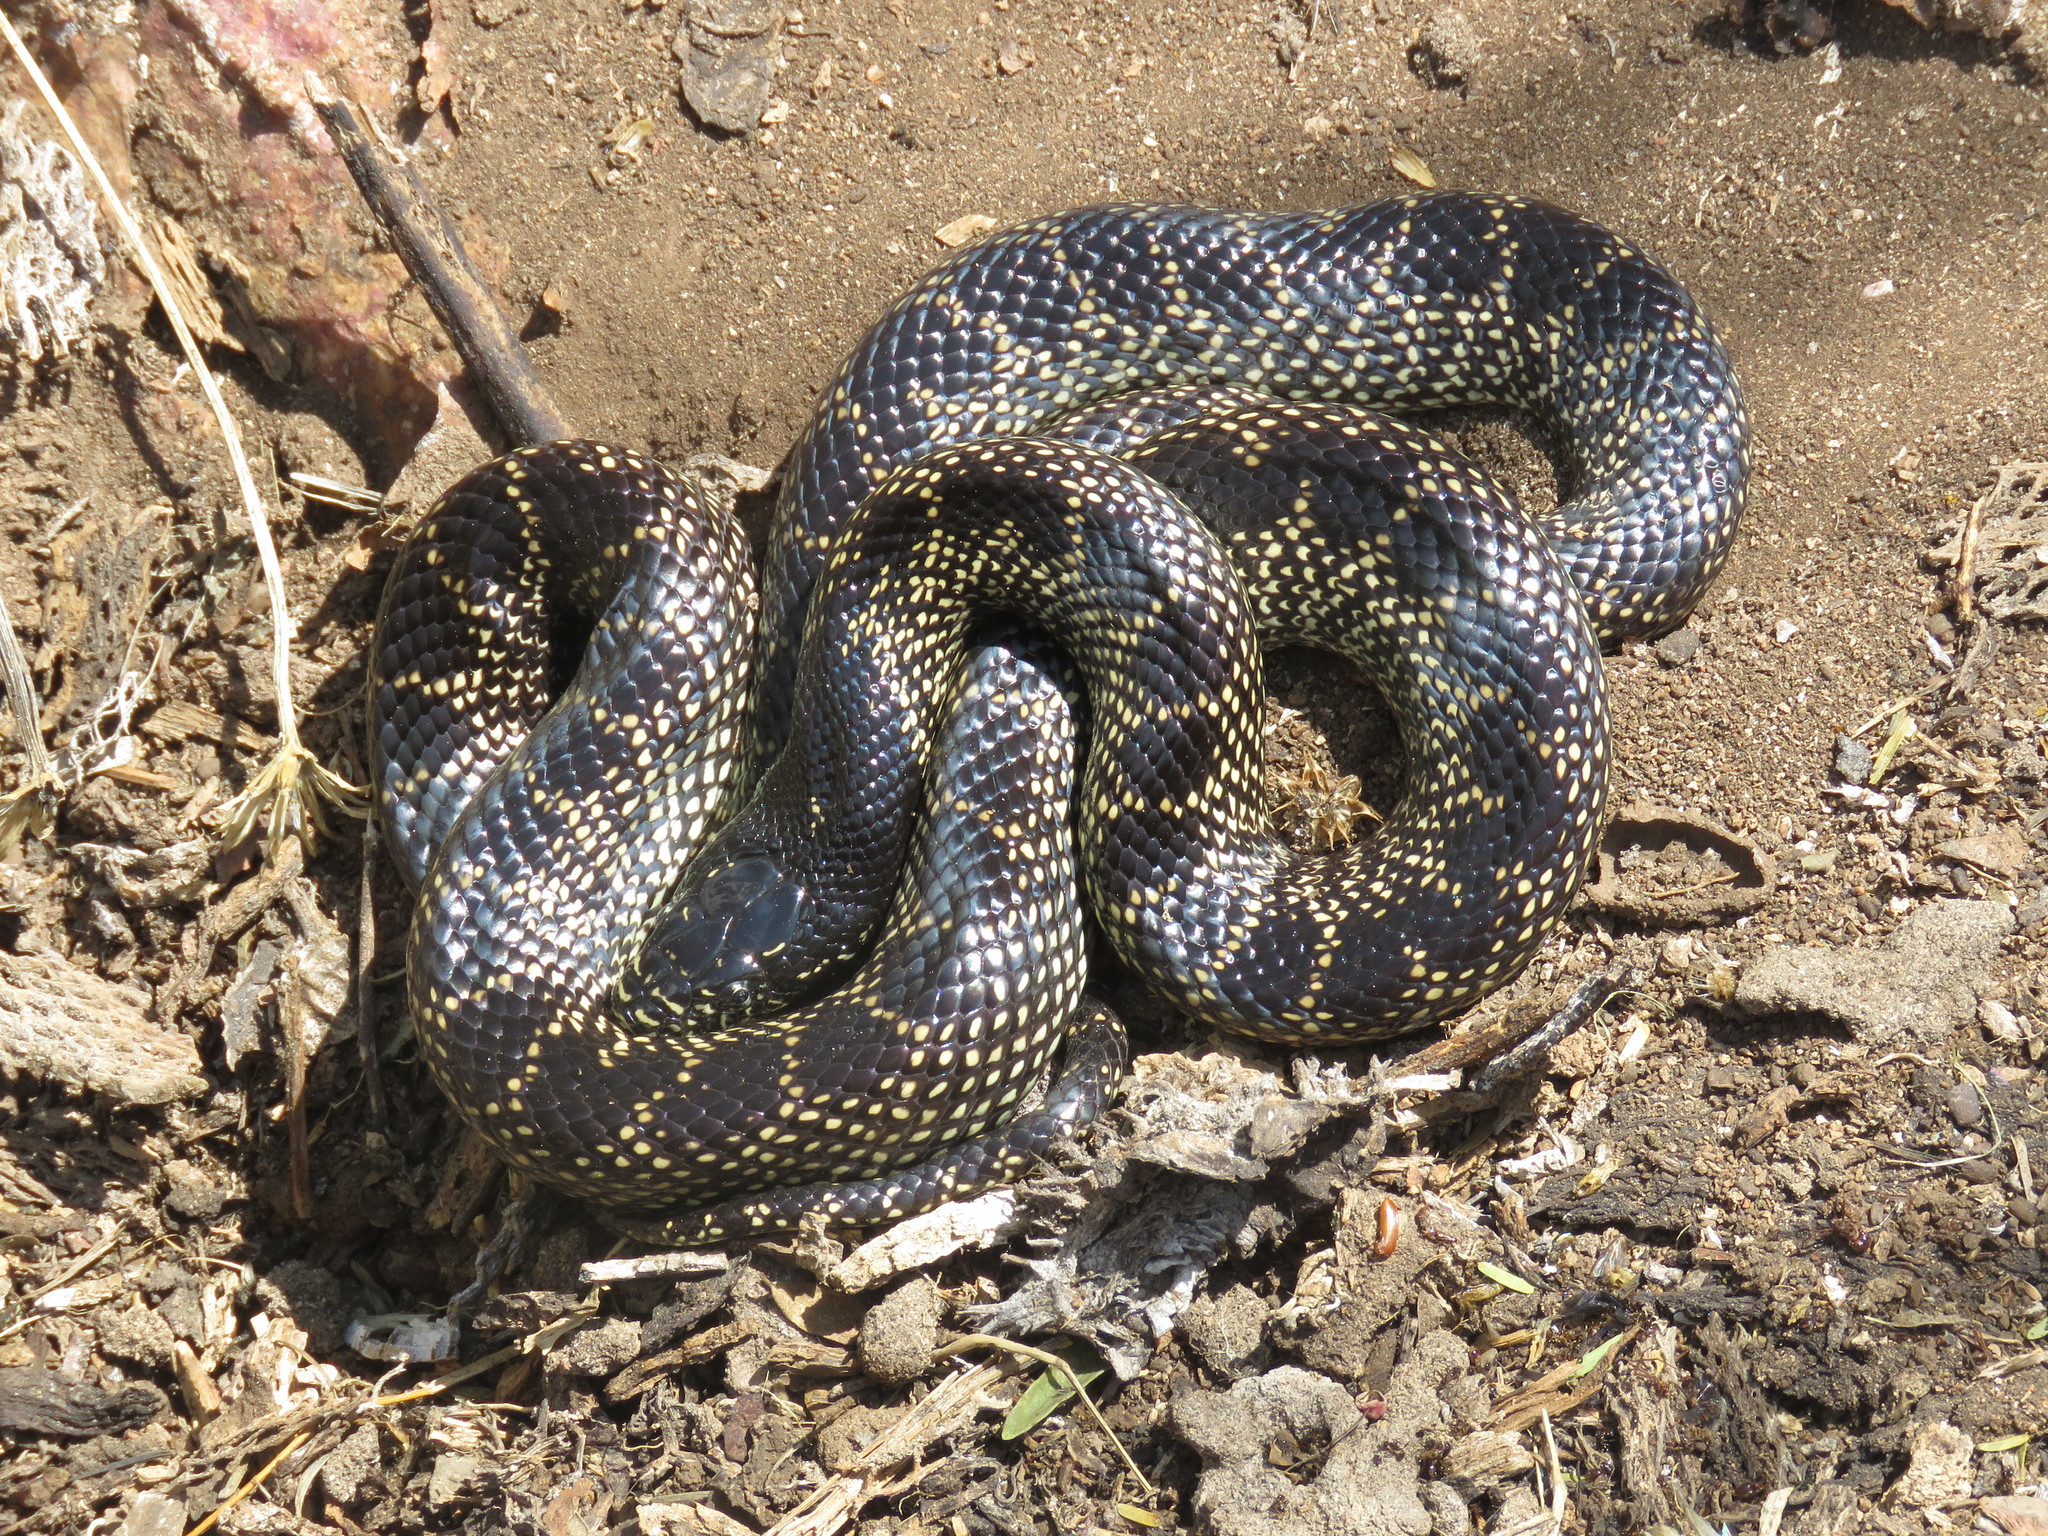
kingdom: Animalia
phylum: Chordata
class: Squamata
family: Colubridae
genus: Lampropeltis
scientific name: Lampropeltis splendida
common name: Desert kingsnake
